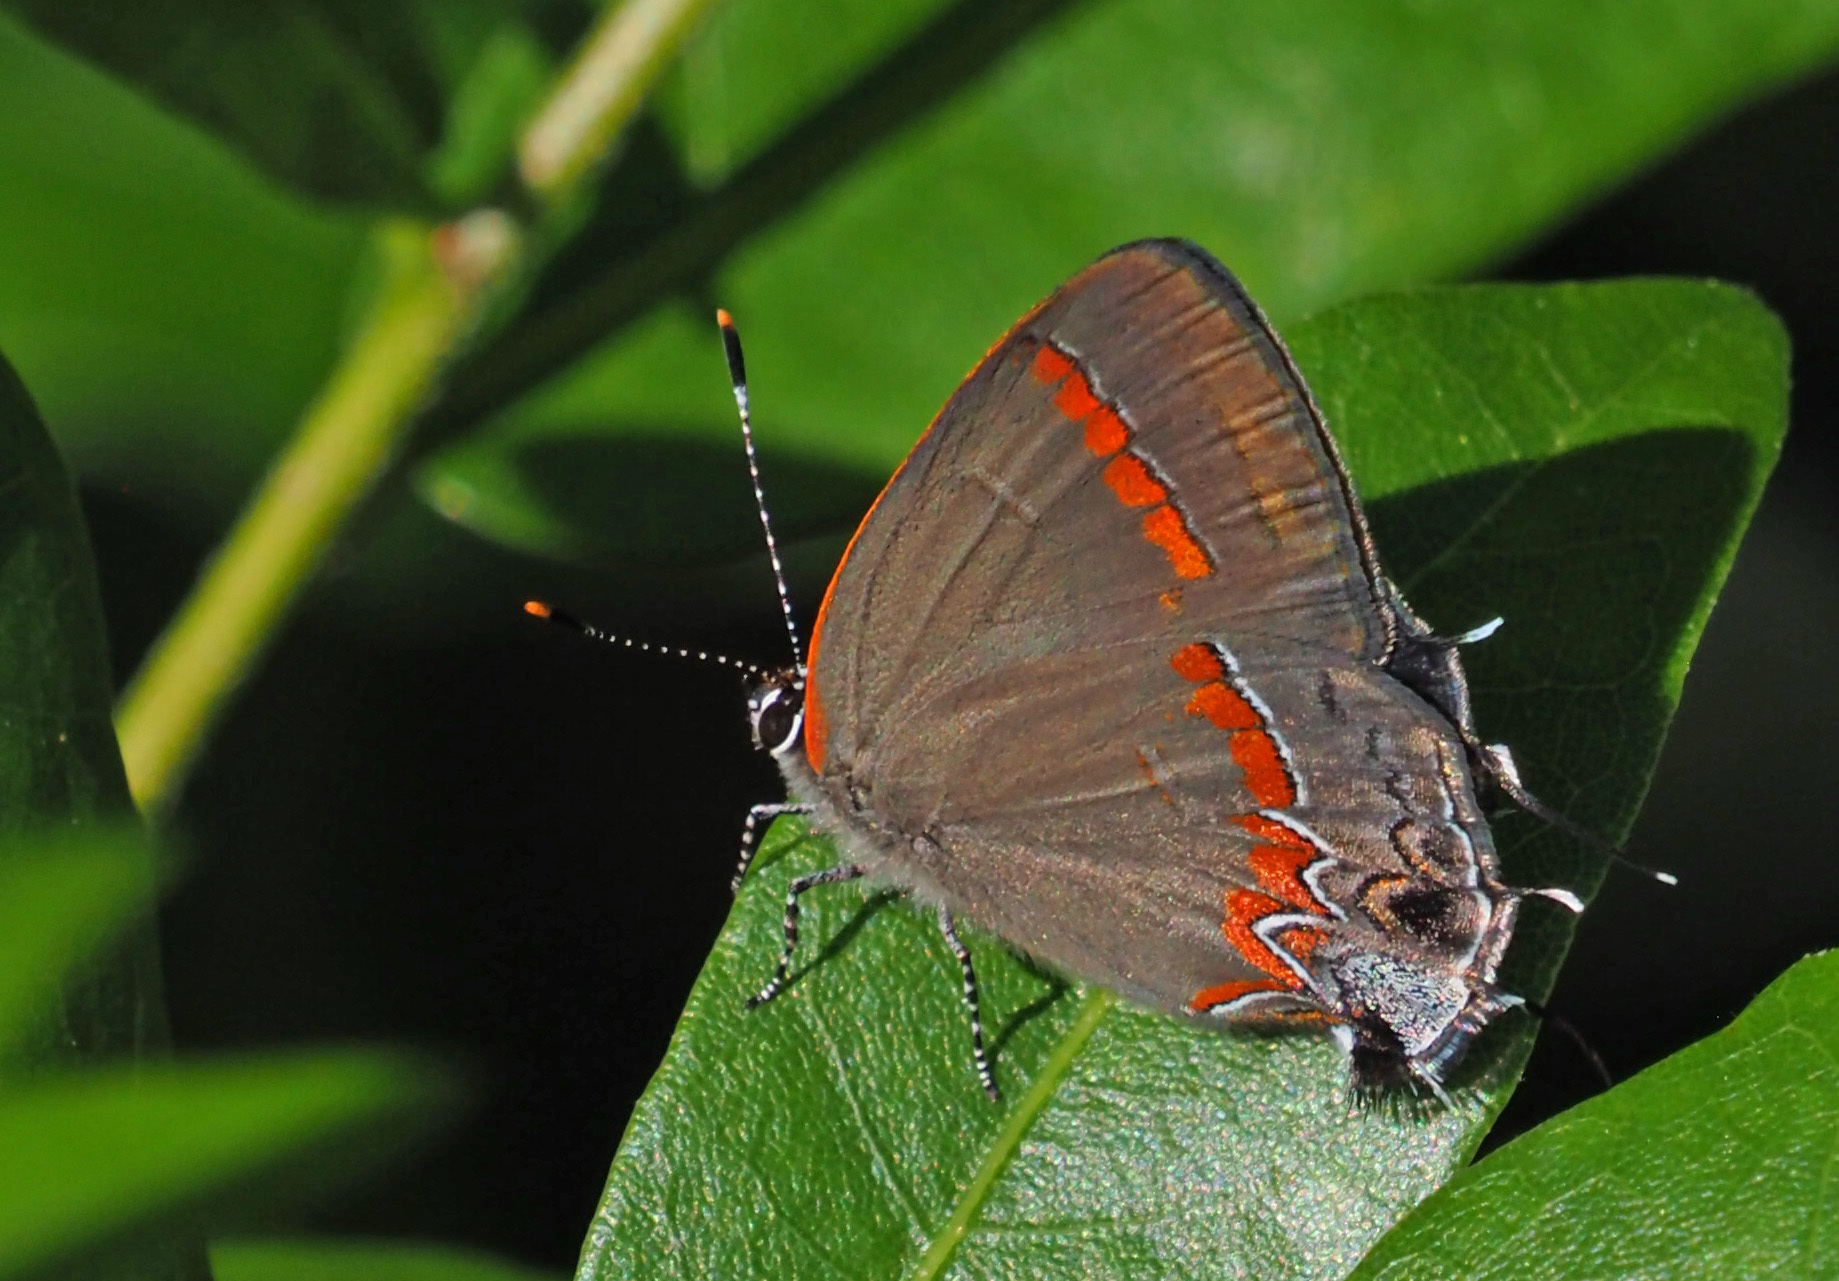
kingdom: Animalia
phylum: Arthropoda
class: Insecta
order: Lepidoptera
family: Lycaenidae
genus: Calycopis
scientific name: Calycopis cecrops
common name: Red-banded hairstreak
